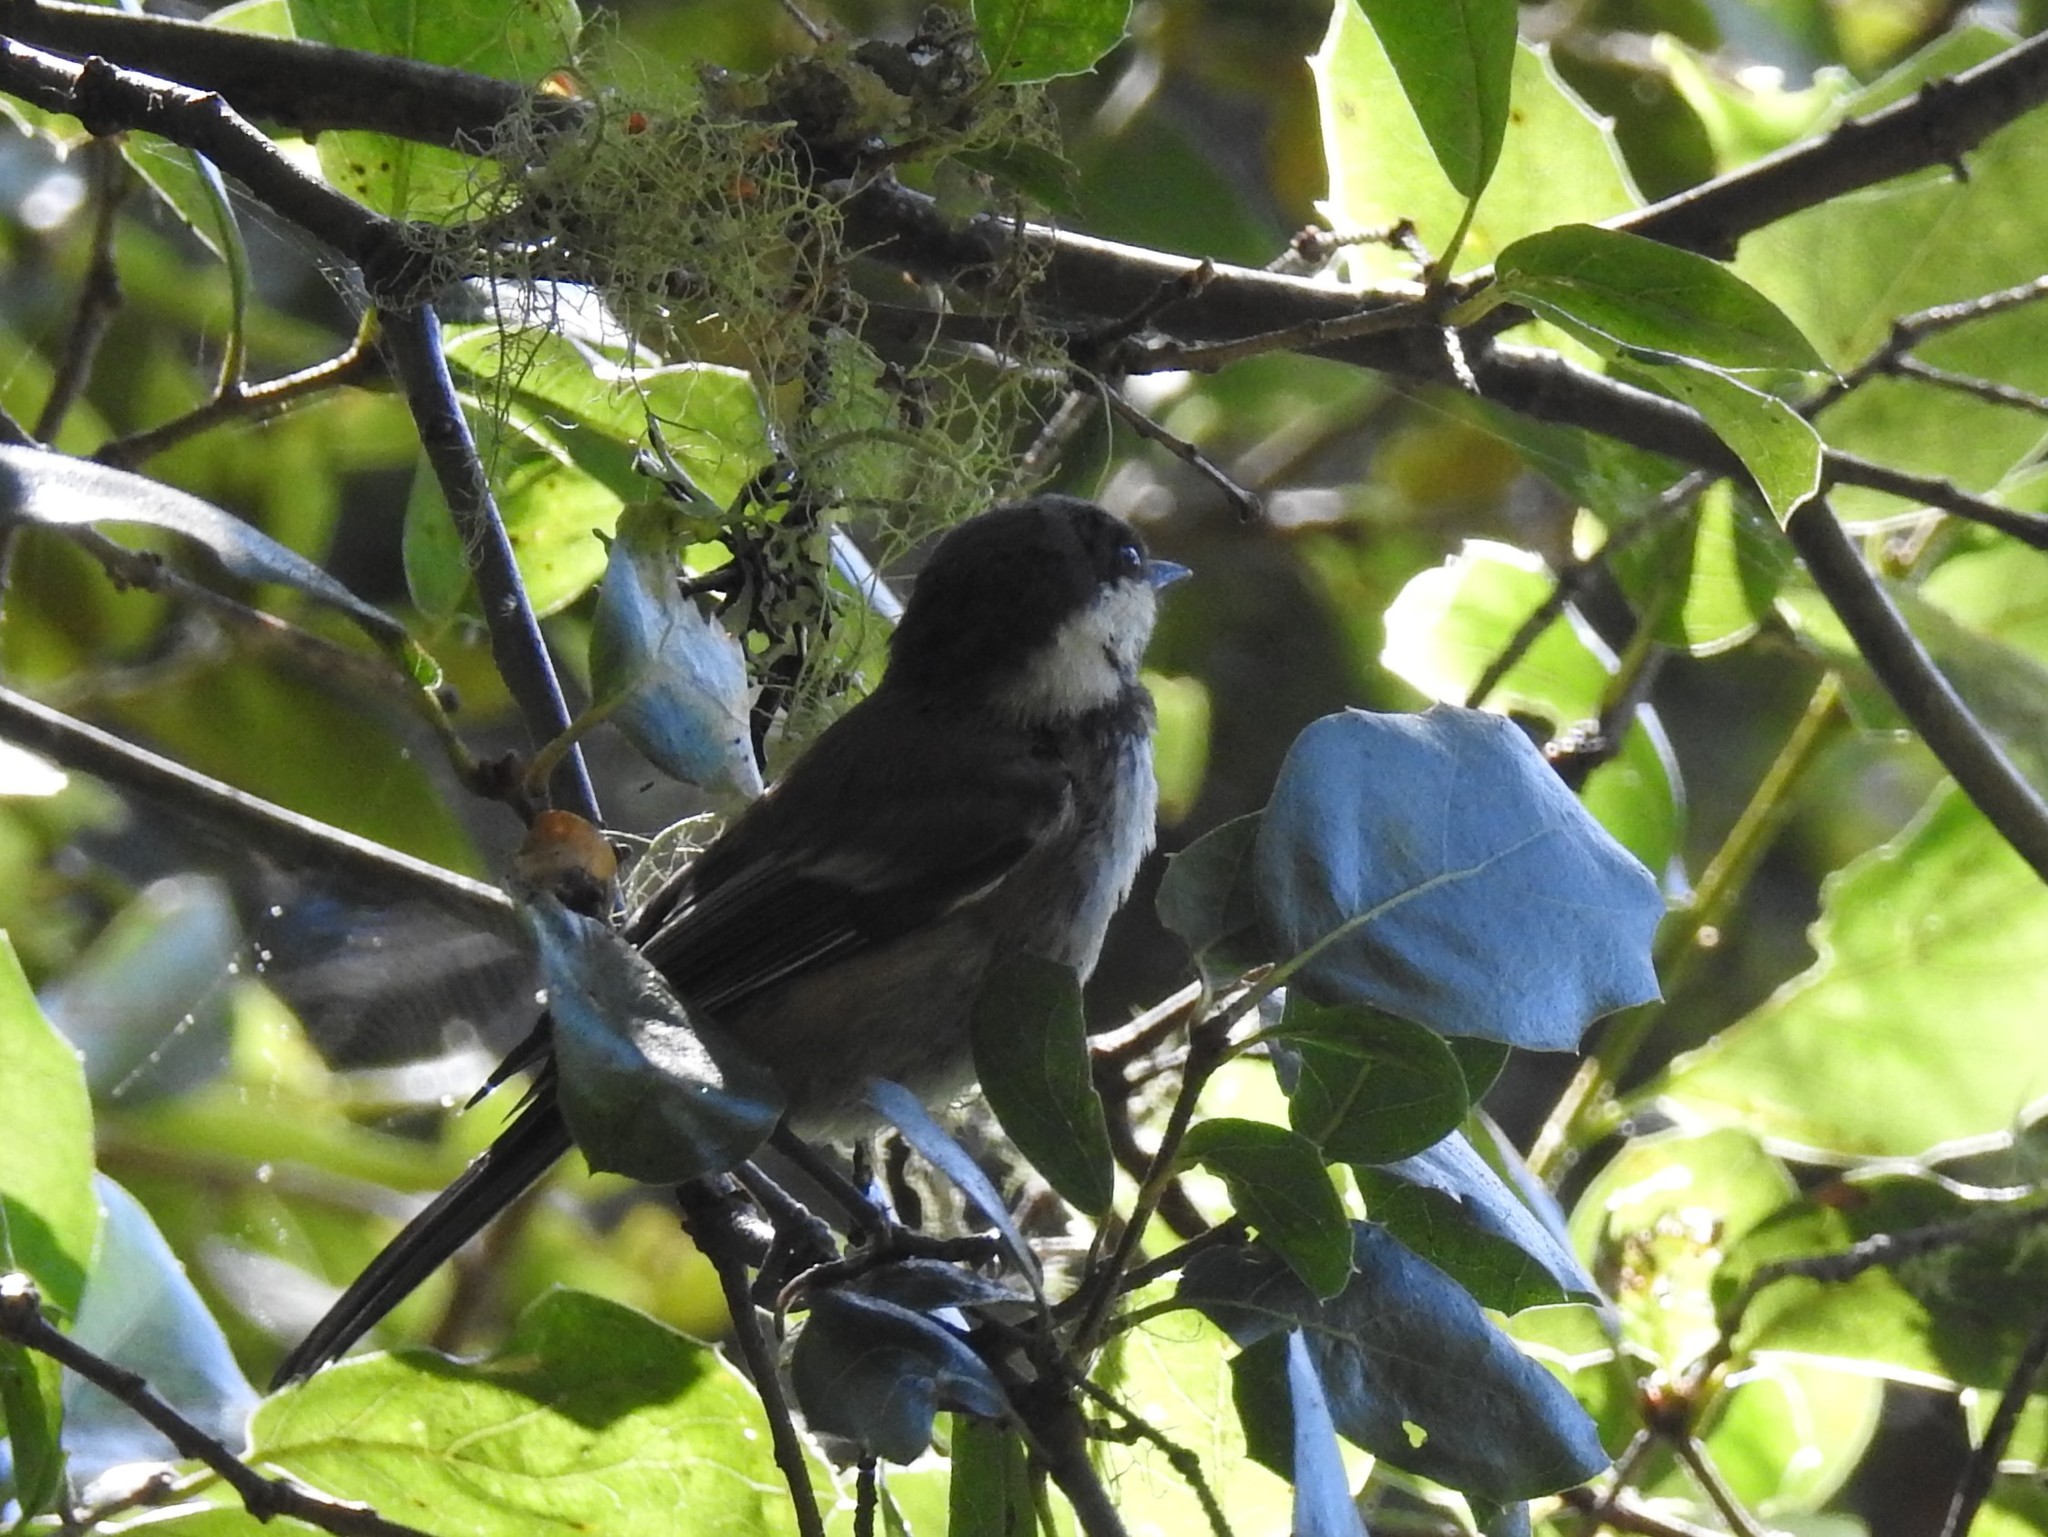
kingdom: Animalia
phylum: Chordata
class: Aves
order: Passeriformes
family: Paridae
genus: Poecile
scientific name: Poecile rufescens
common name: Chestnut-backed chickadee
